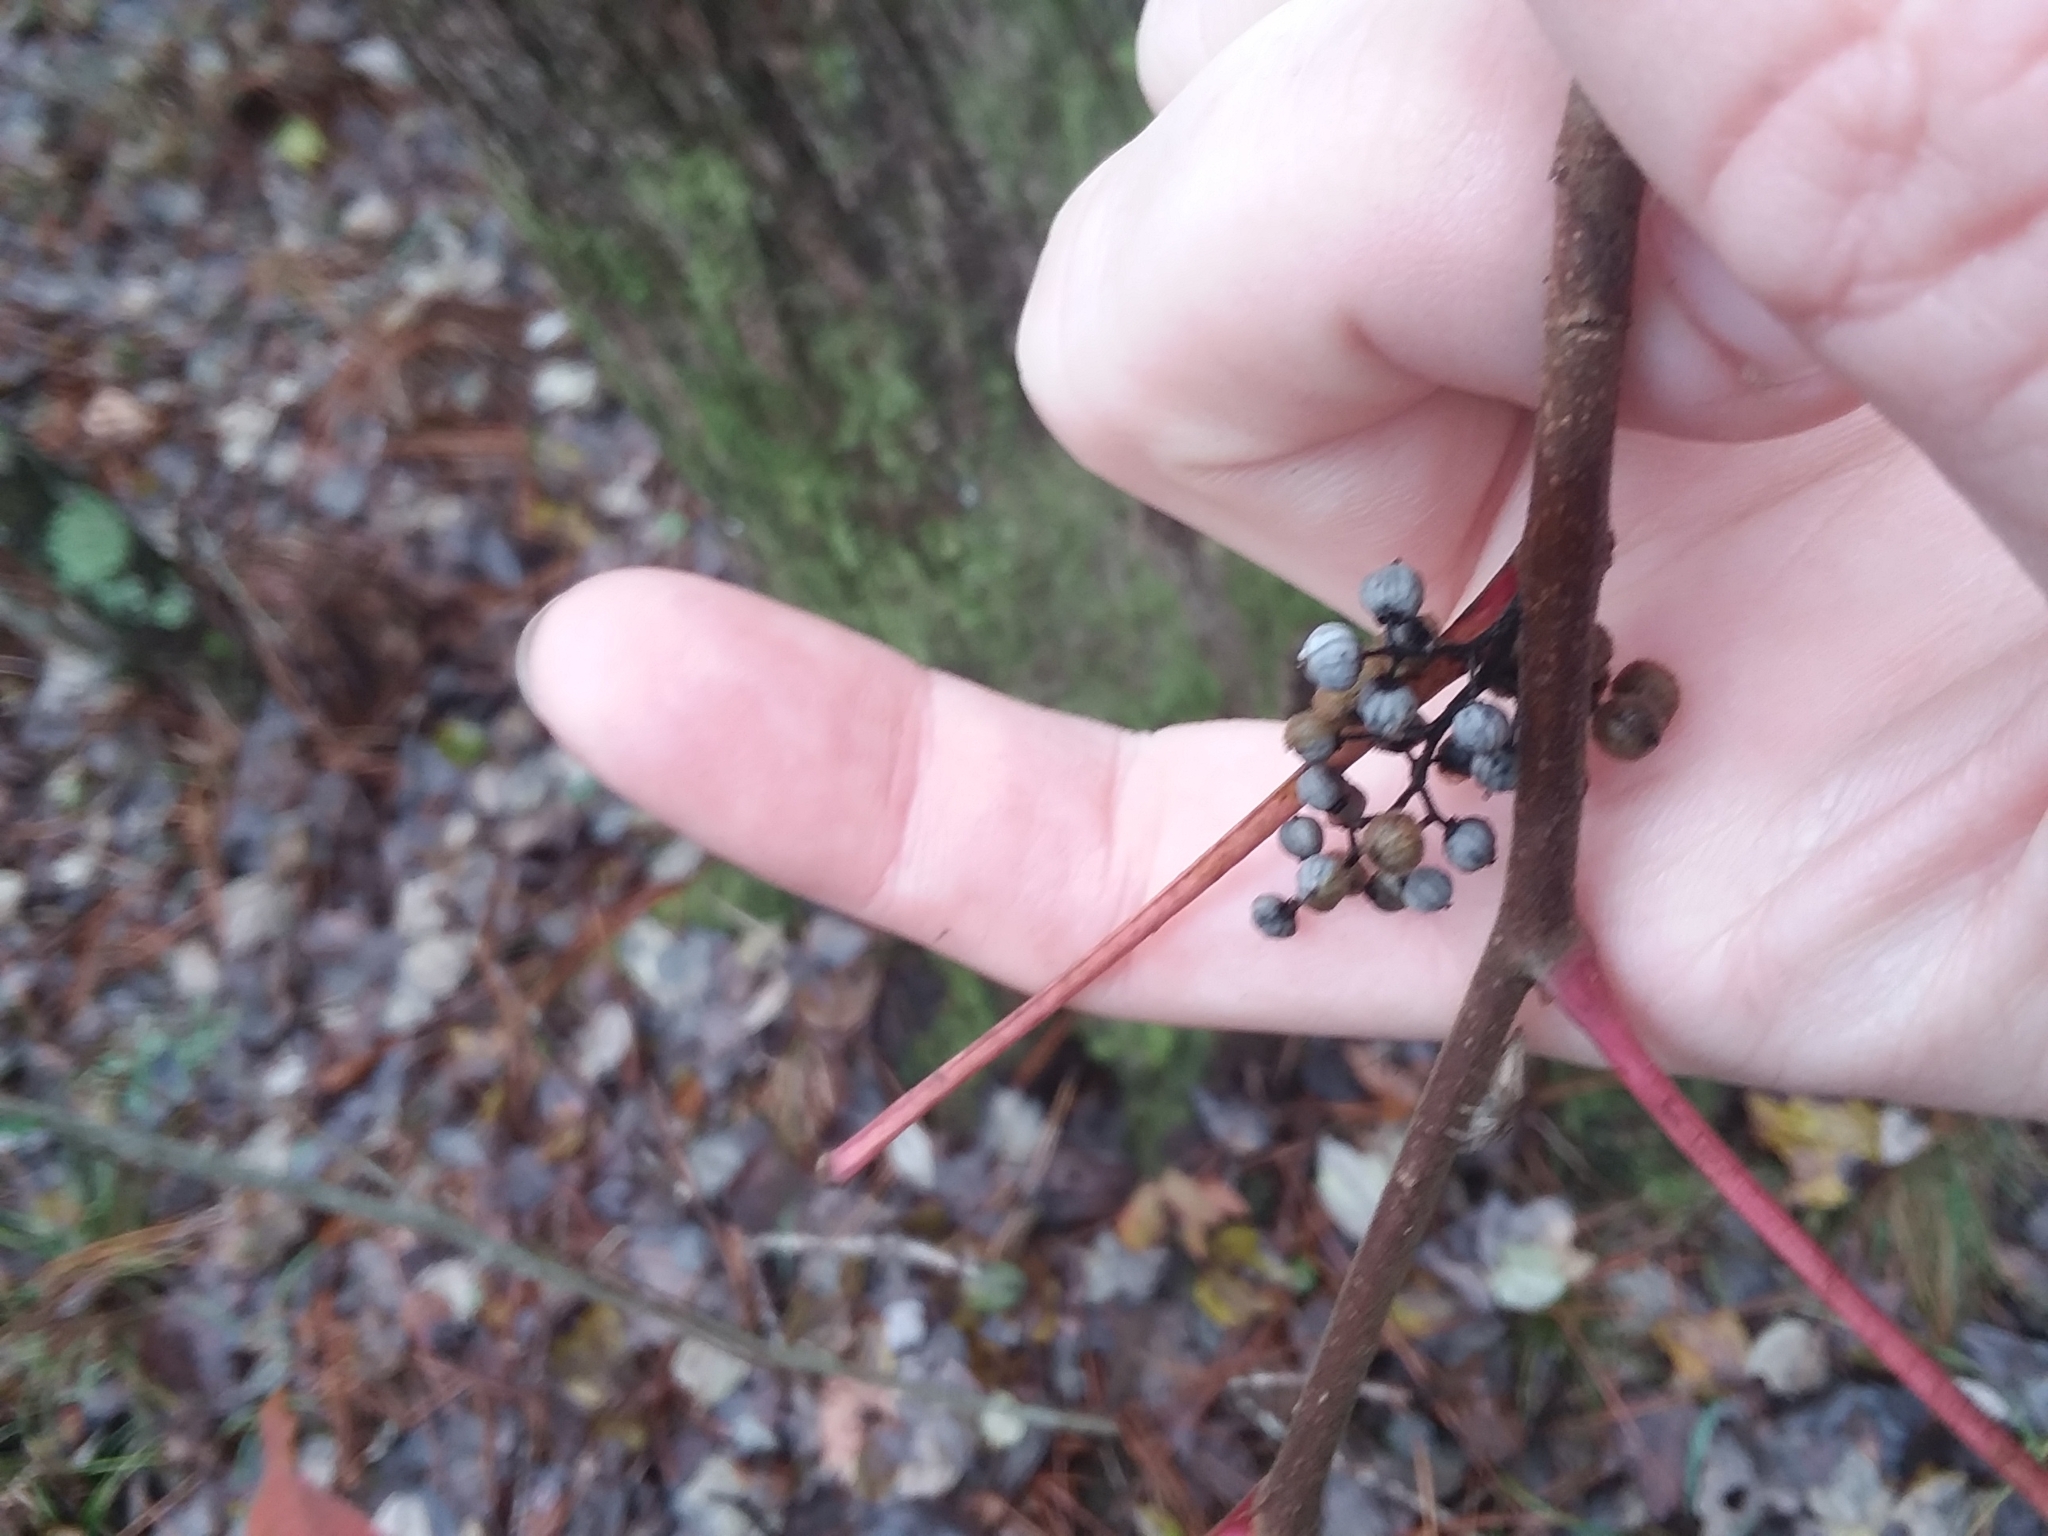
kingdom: Plantae
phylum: Tracheophyta
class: Magnoliopsida
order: Sapindales
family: Anacardiaceae
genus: Toxicodendron
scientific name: Toxicodendron radicans
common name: Poison ivy
